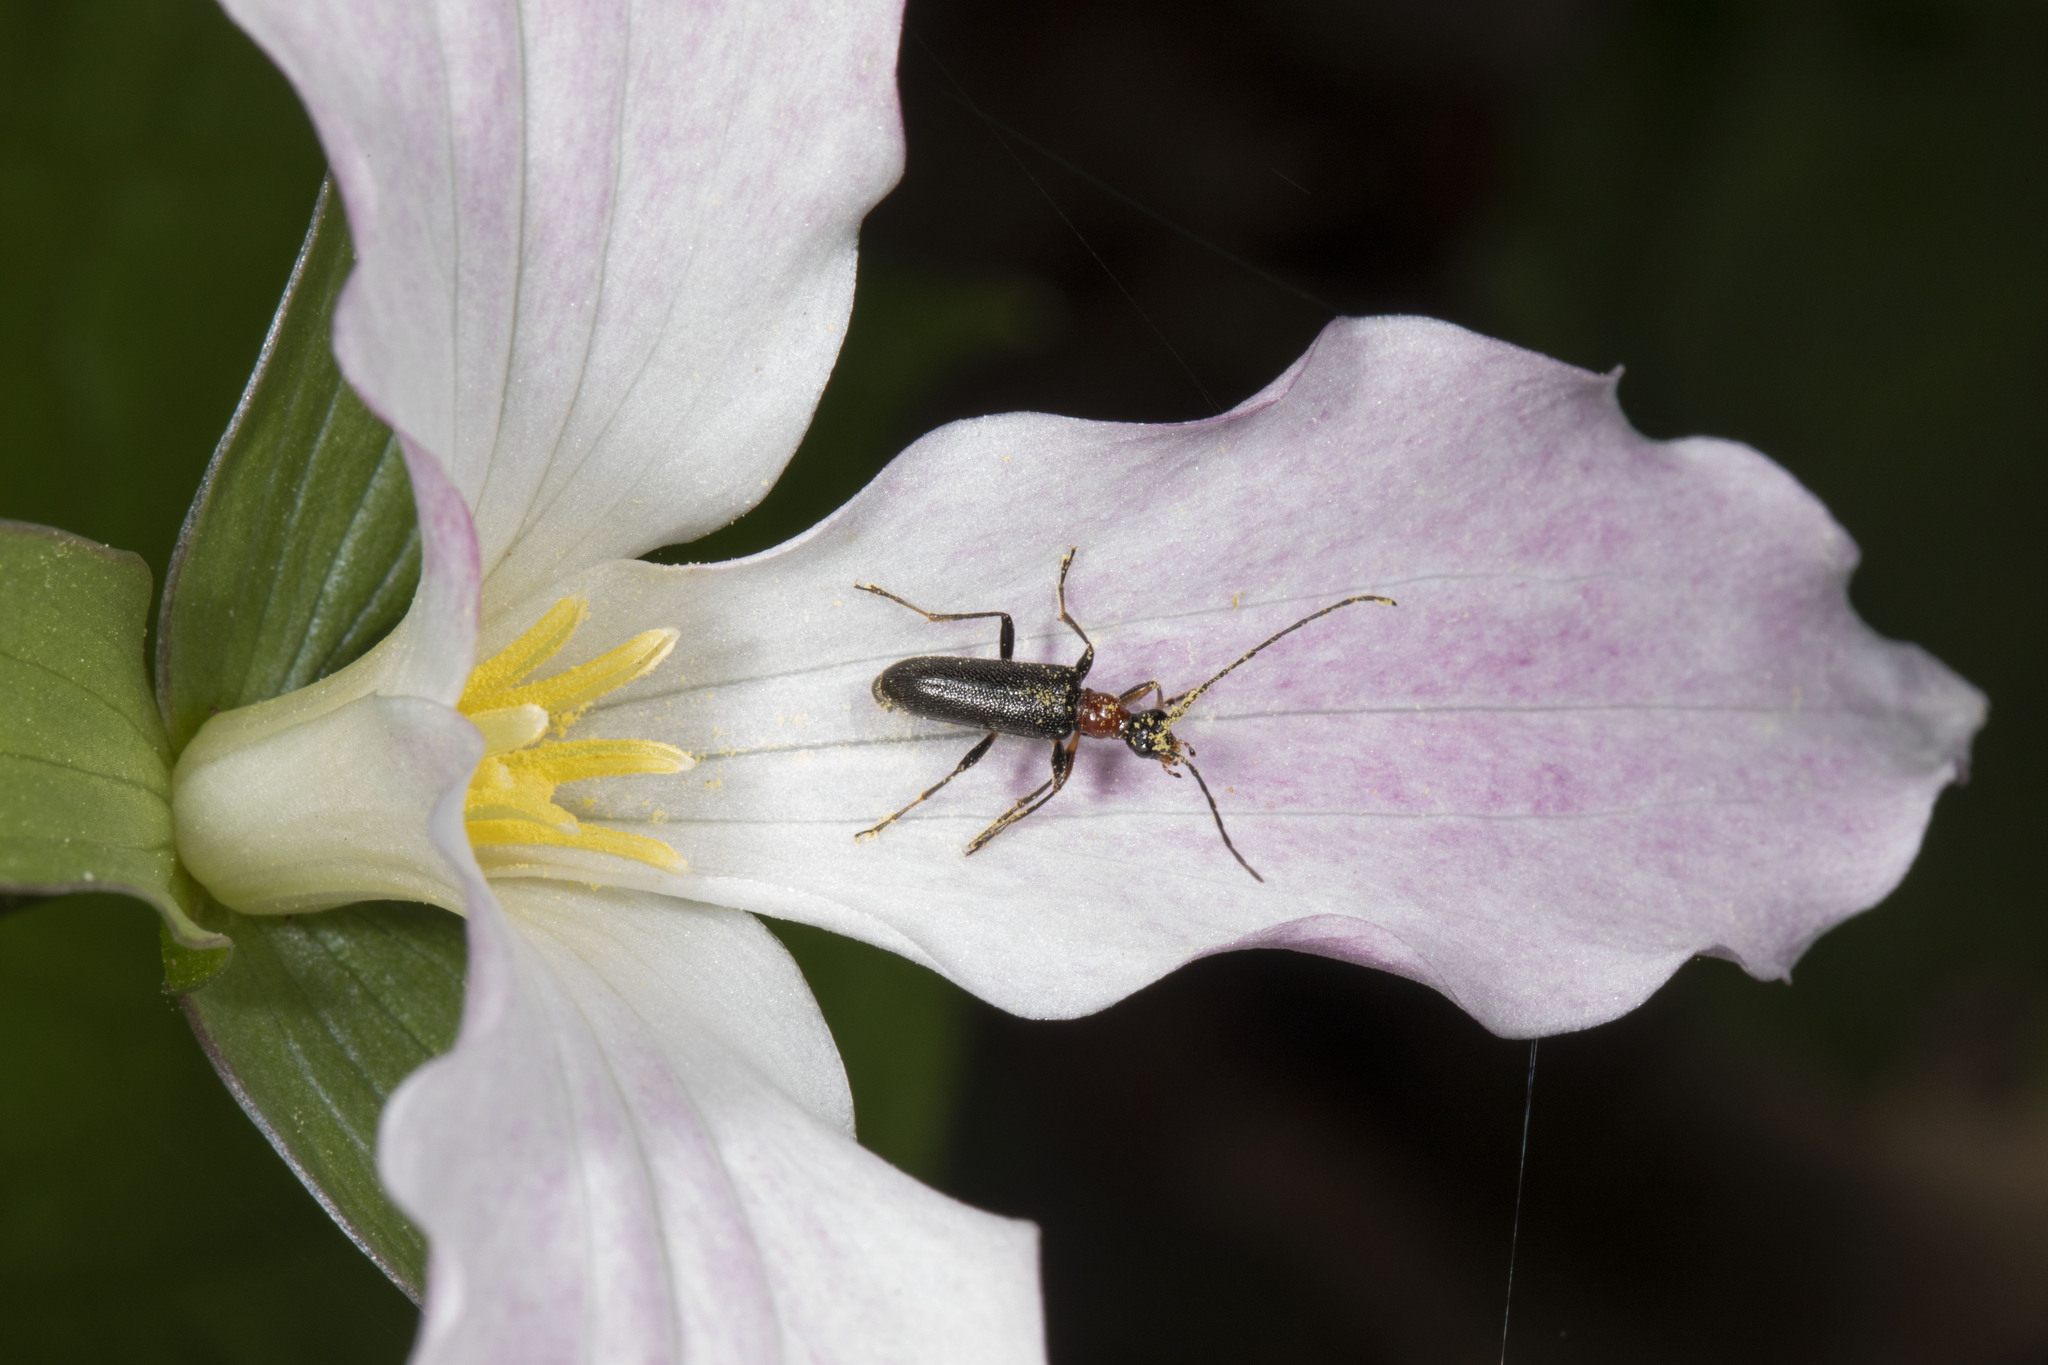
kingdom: Animalia
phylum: Arthropoda
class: Insecta
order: Coleoptera
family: Cerambycidae
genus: Pidonia
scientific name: Pidonia ruficollis
